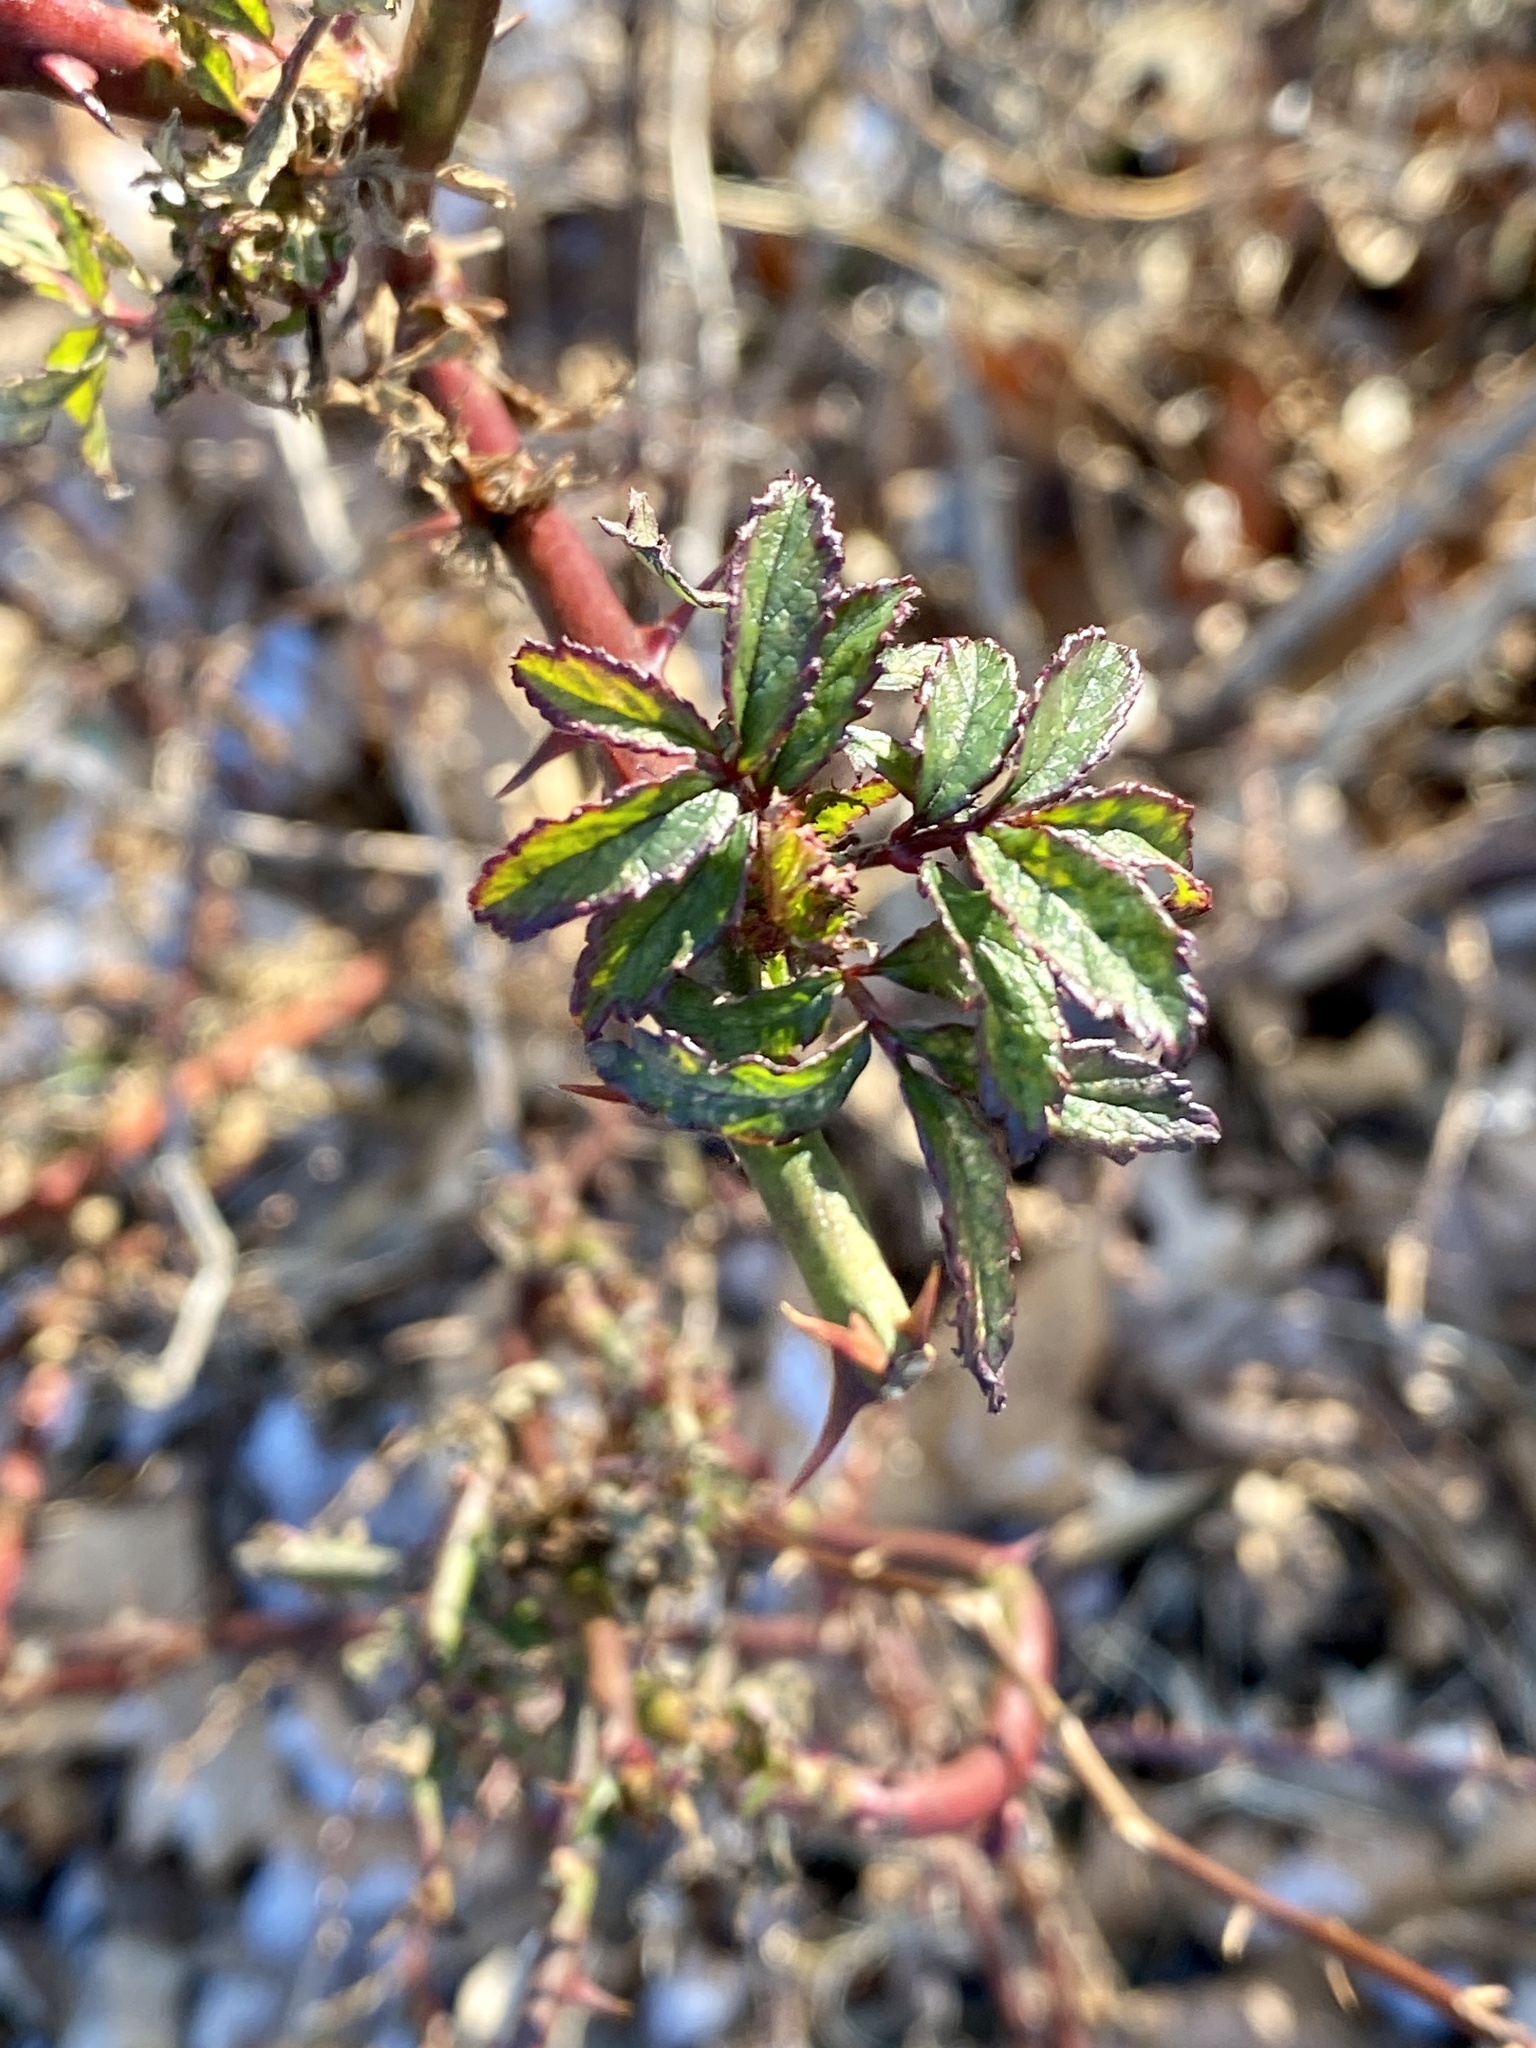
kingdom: Viruses
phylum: Negarnaviricota
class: Ellioviricetes
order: Bunyavirales
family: Fimoviridae
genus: Emaravirus
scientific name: Emaravirus rosae
